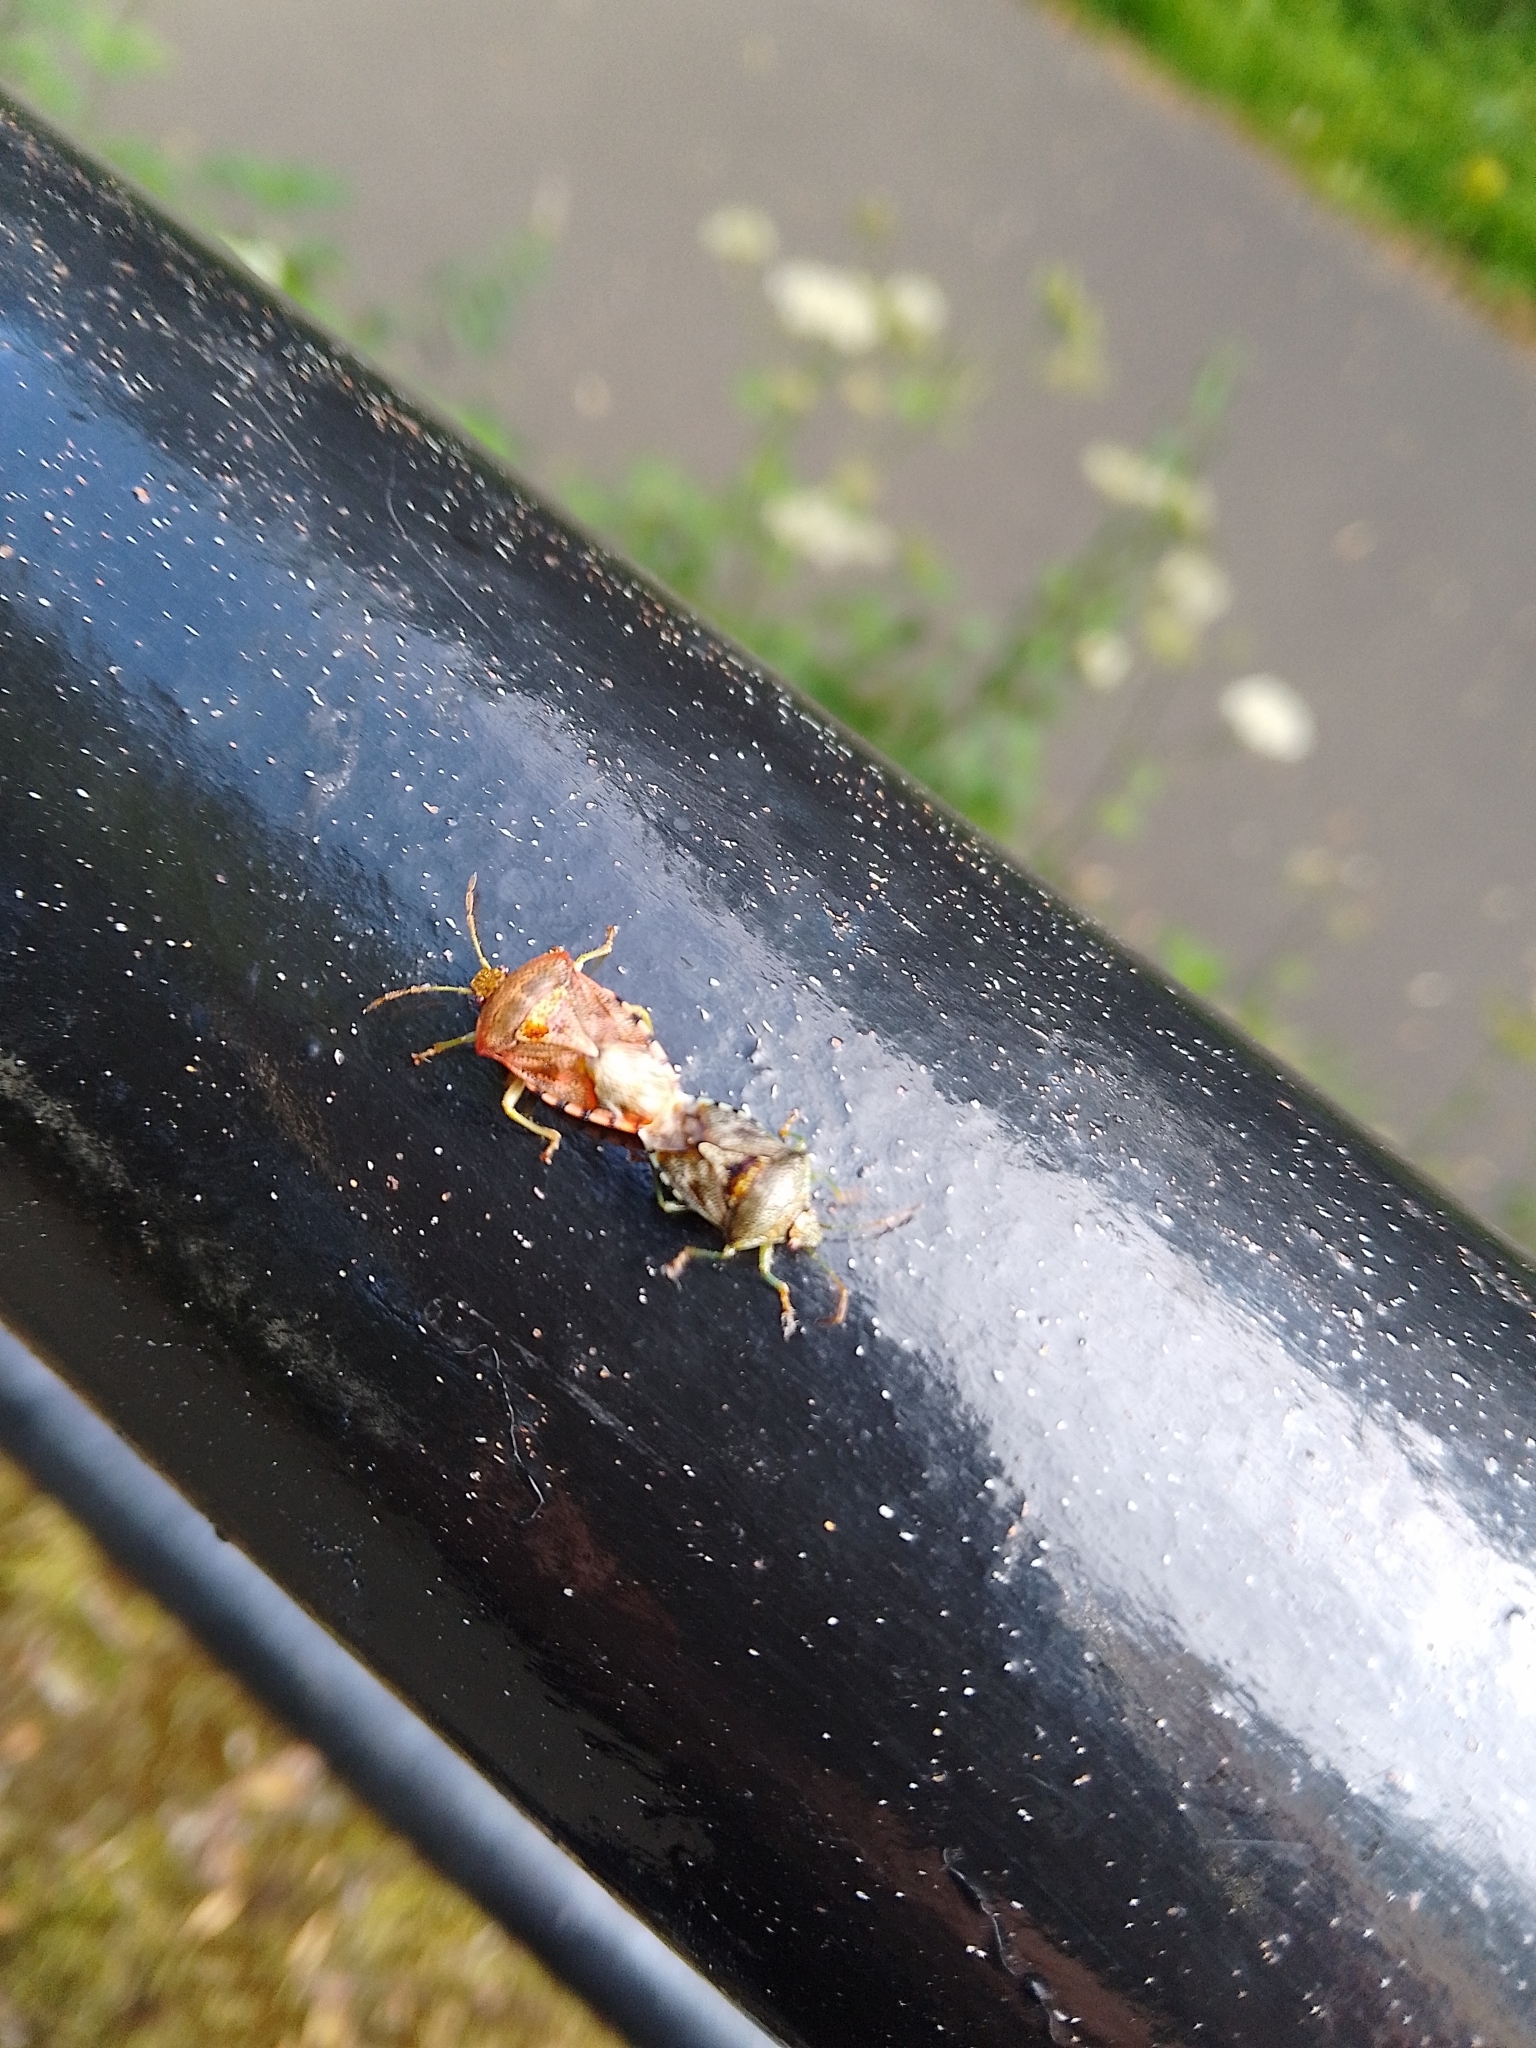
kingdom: Animalia
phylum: Arthropoda
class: Insecta
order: Hemiptera
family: Acanthosomatidae
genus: Elasmucha
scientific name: Elasmucha grisea
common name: Parent bug
